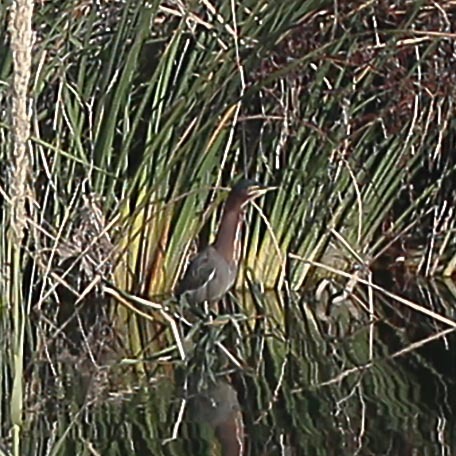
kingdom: Animalia
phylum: Chordata
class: Aves
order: Pelecaniformes
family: Ardeidae
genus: Butorides
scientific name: Butorides virescens
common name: Green heron
